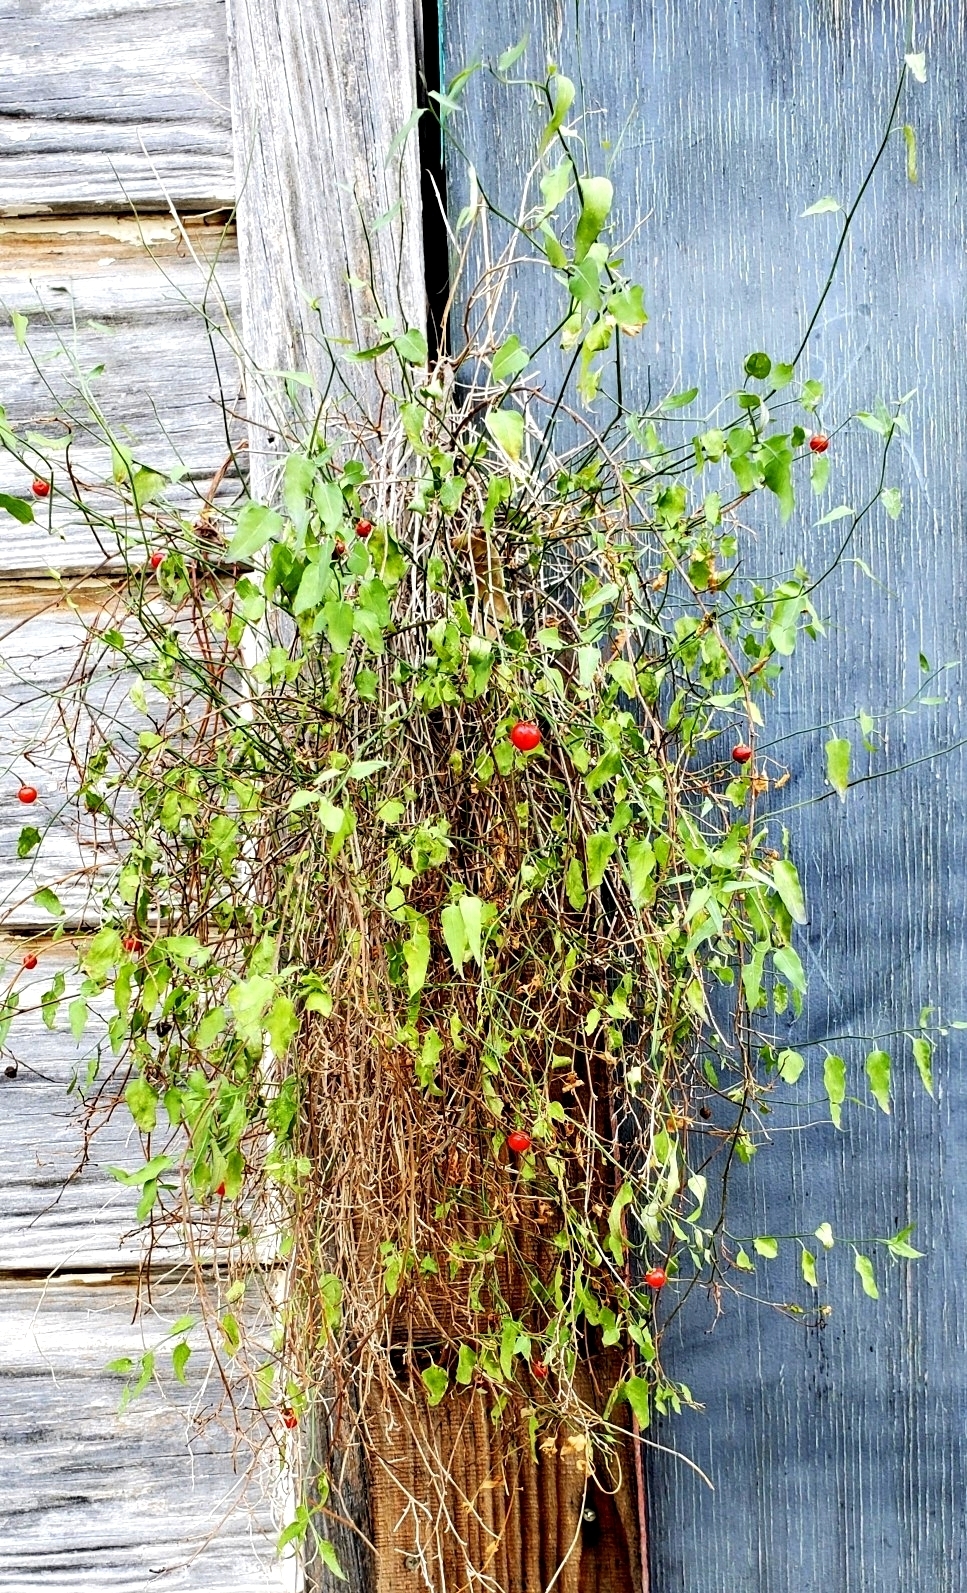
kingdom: Plantae
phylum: Tracheophyta
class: Magnoliopsida
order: Solanales
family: Solanaceae
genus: Solanum
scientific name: Solanum triquetrum
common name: Texas nightshade
